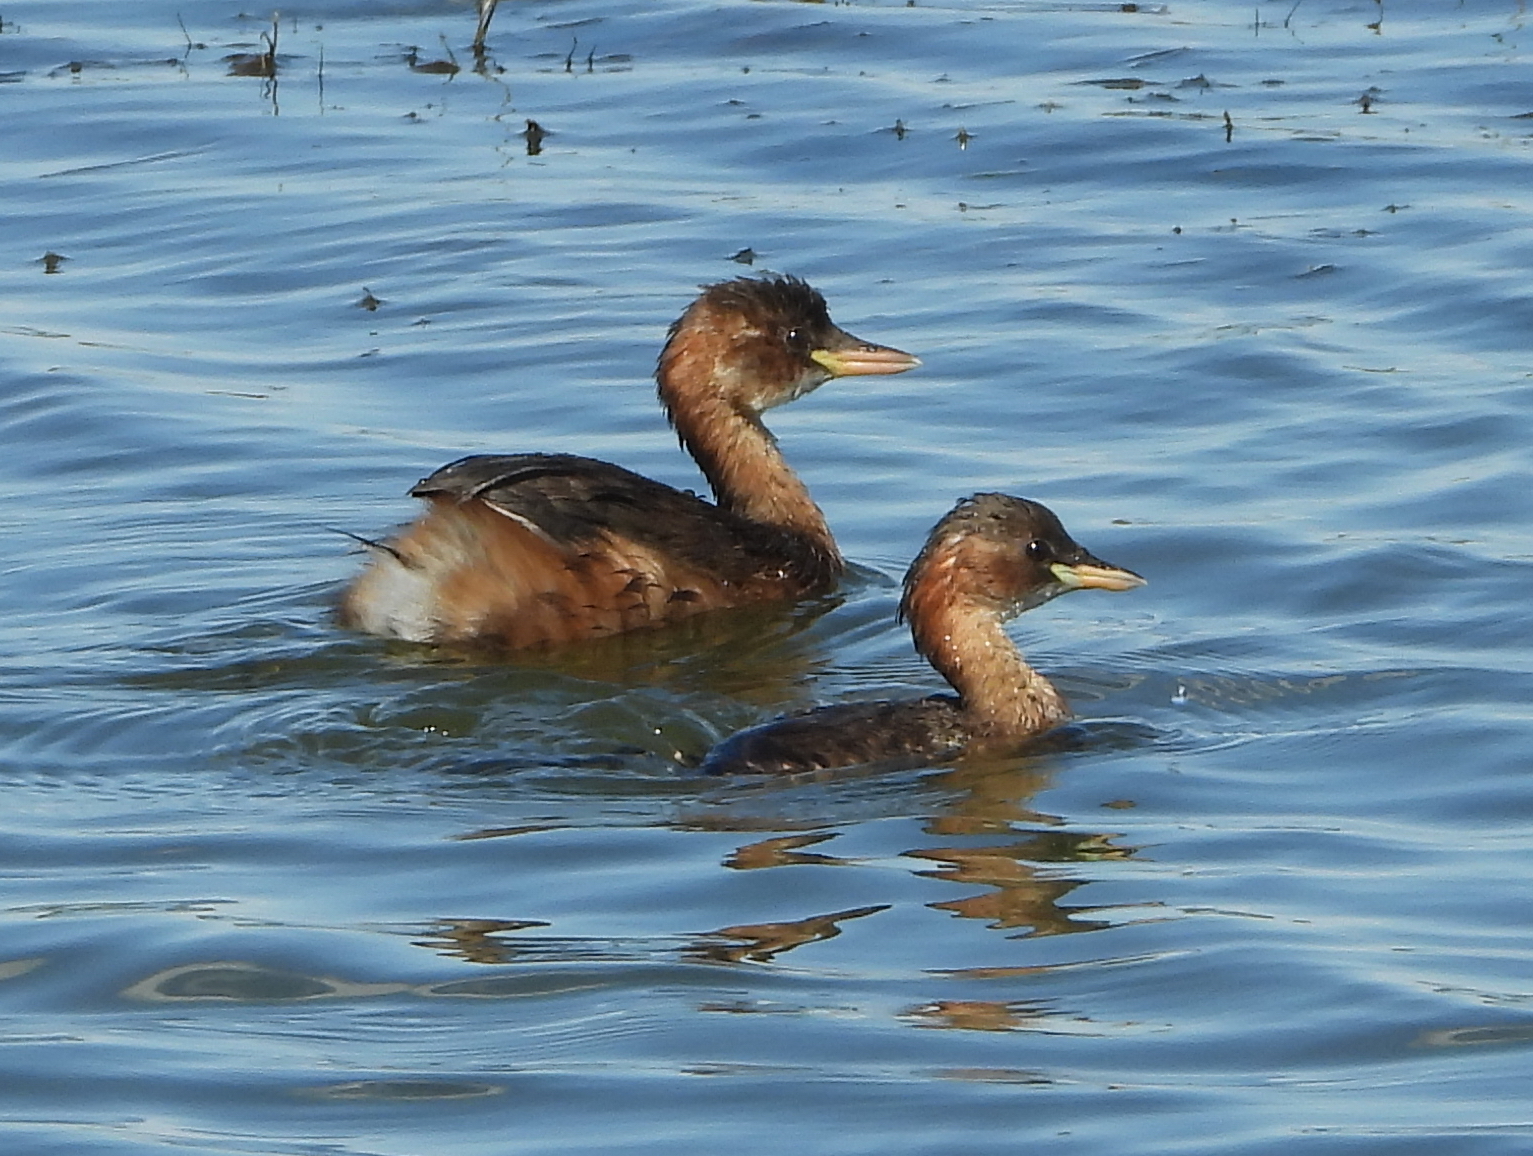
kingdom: Animalia
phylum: Chordata
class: Aves
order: Podicipediformes
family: Podicipedidae
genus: Tachybaptus
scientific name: Tachybaptus ruficollis
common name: Little grebe
